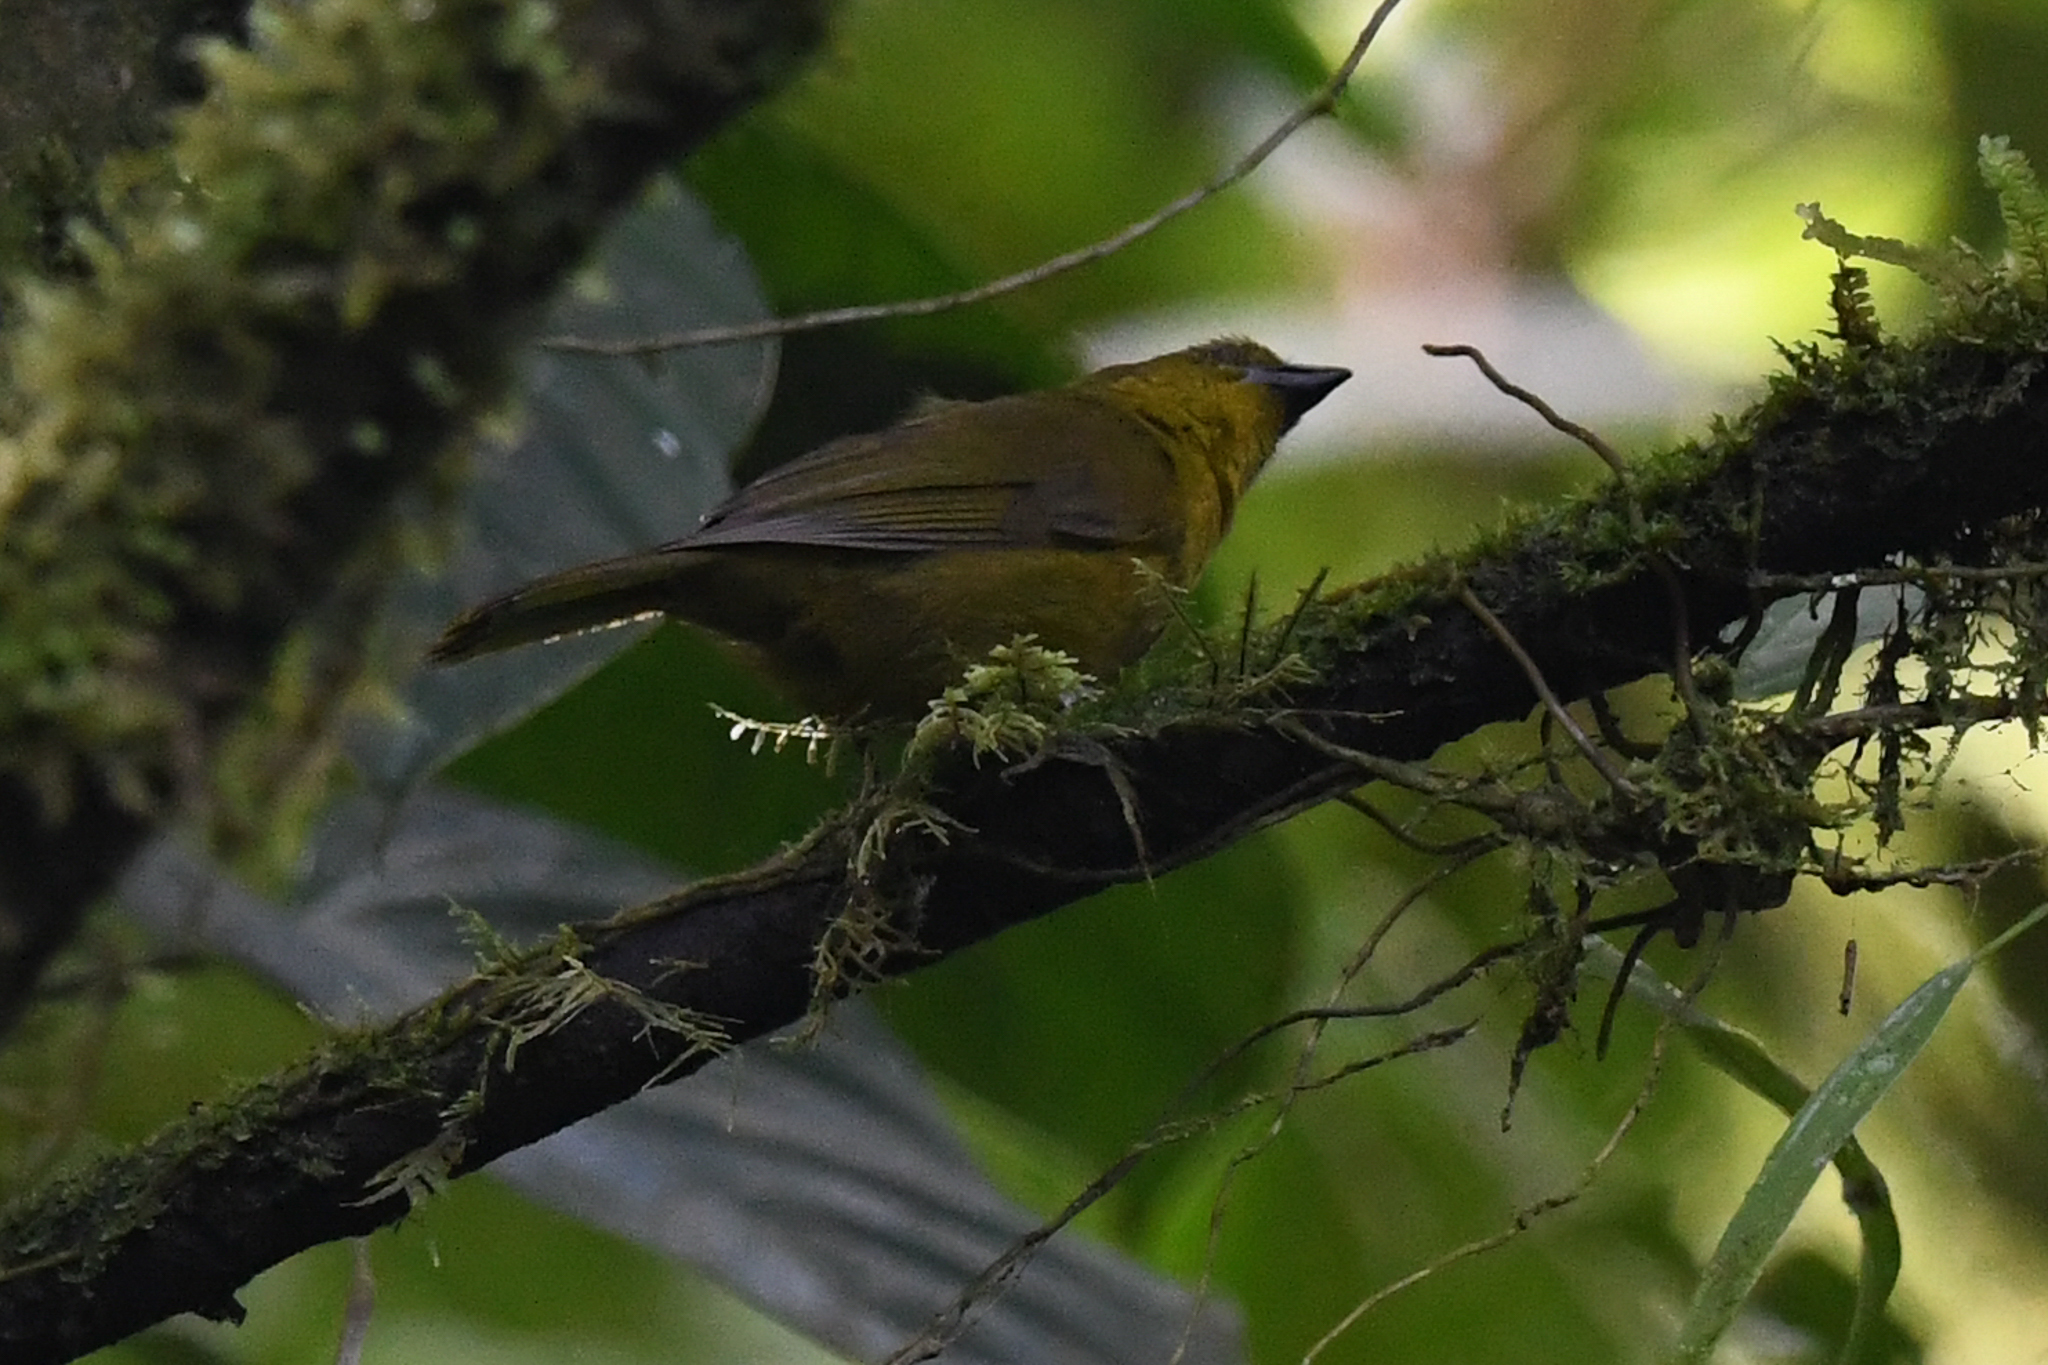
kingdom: Animalia
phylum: Chordata
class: Aves
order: Passeriformes
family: Cardinalidae
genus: Chlorothraupis
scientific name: Chlorothraupis carmioli
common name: Carmiol's tanager
